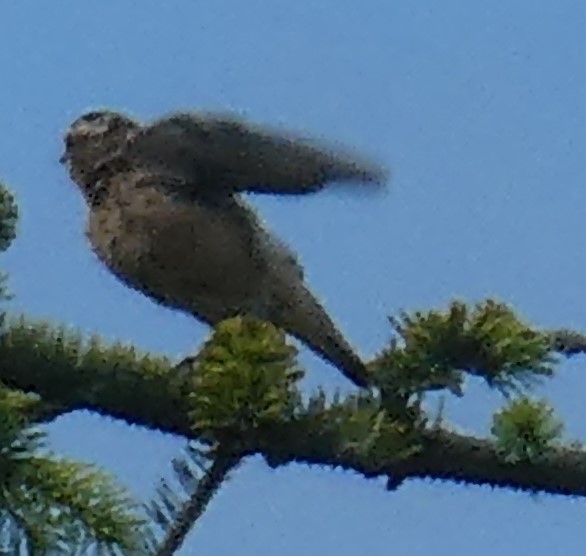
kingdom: Animalia
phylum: Chordata
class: Aves
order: Passeriformes
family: Muscicapidae
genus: Saxicola
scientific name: Saxicola rubetra
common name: Whinchat
